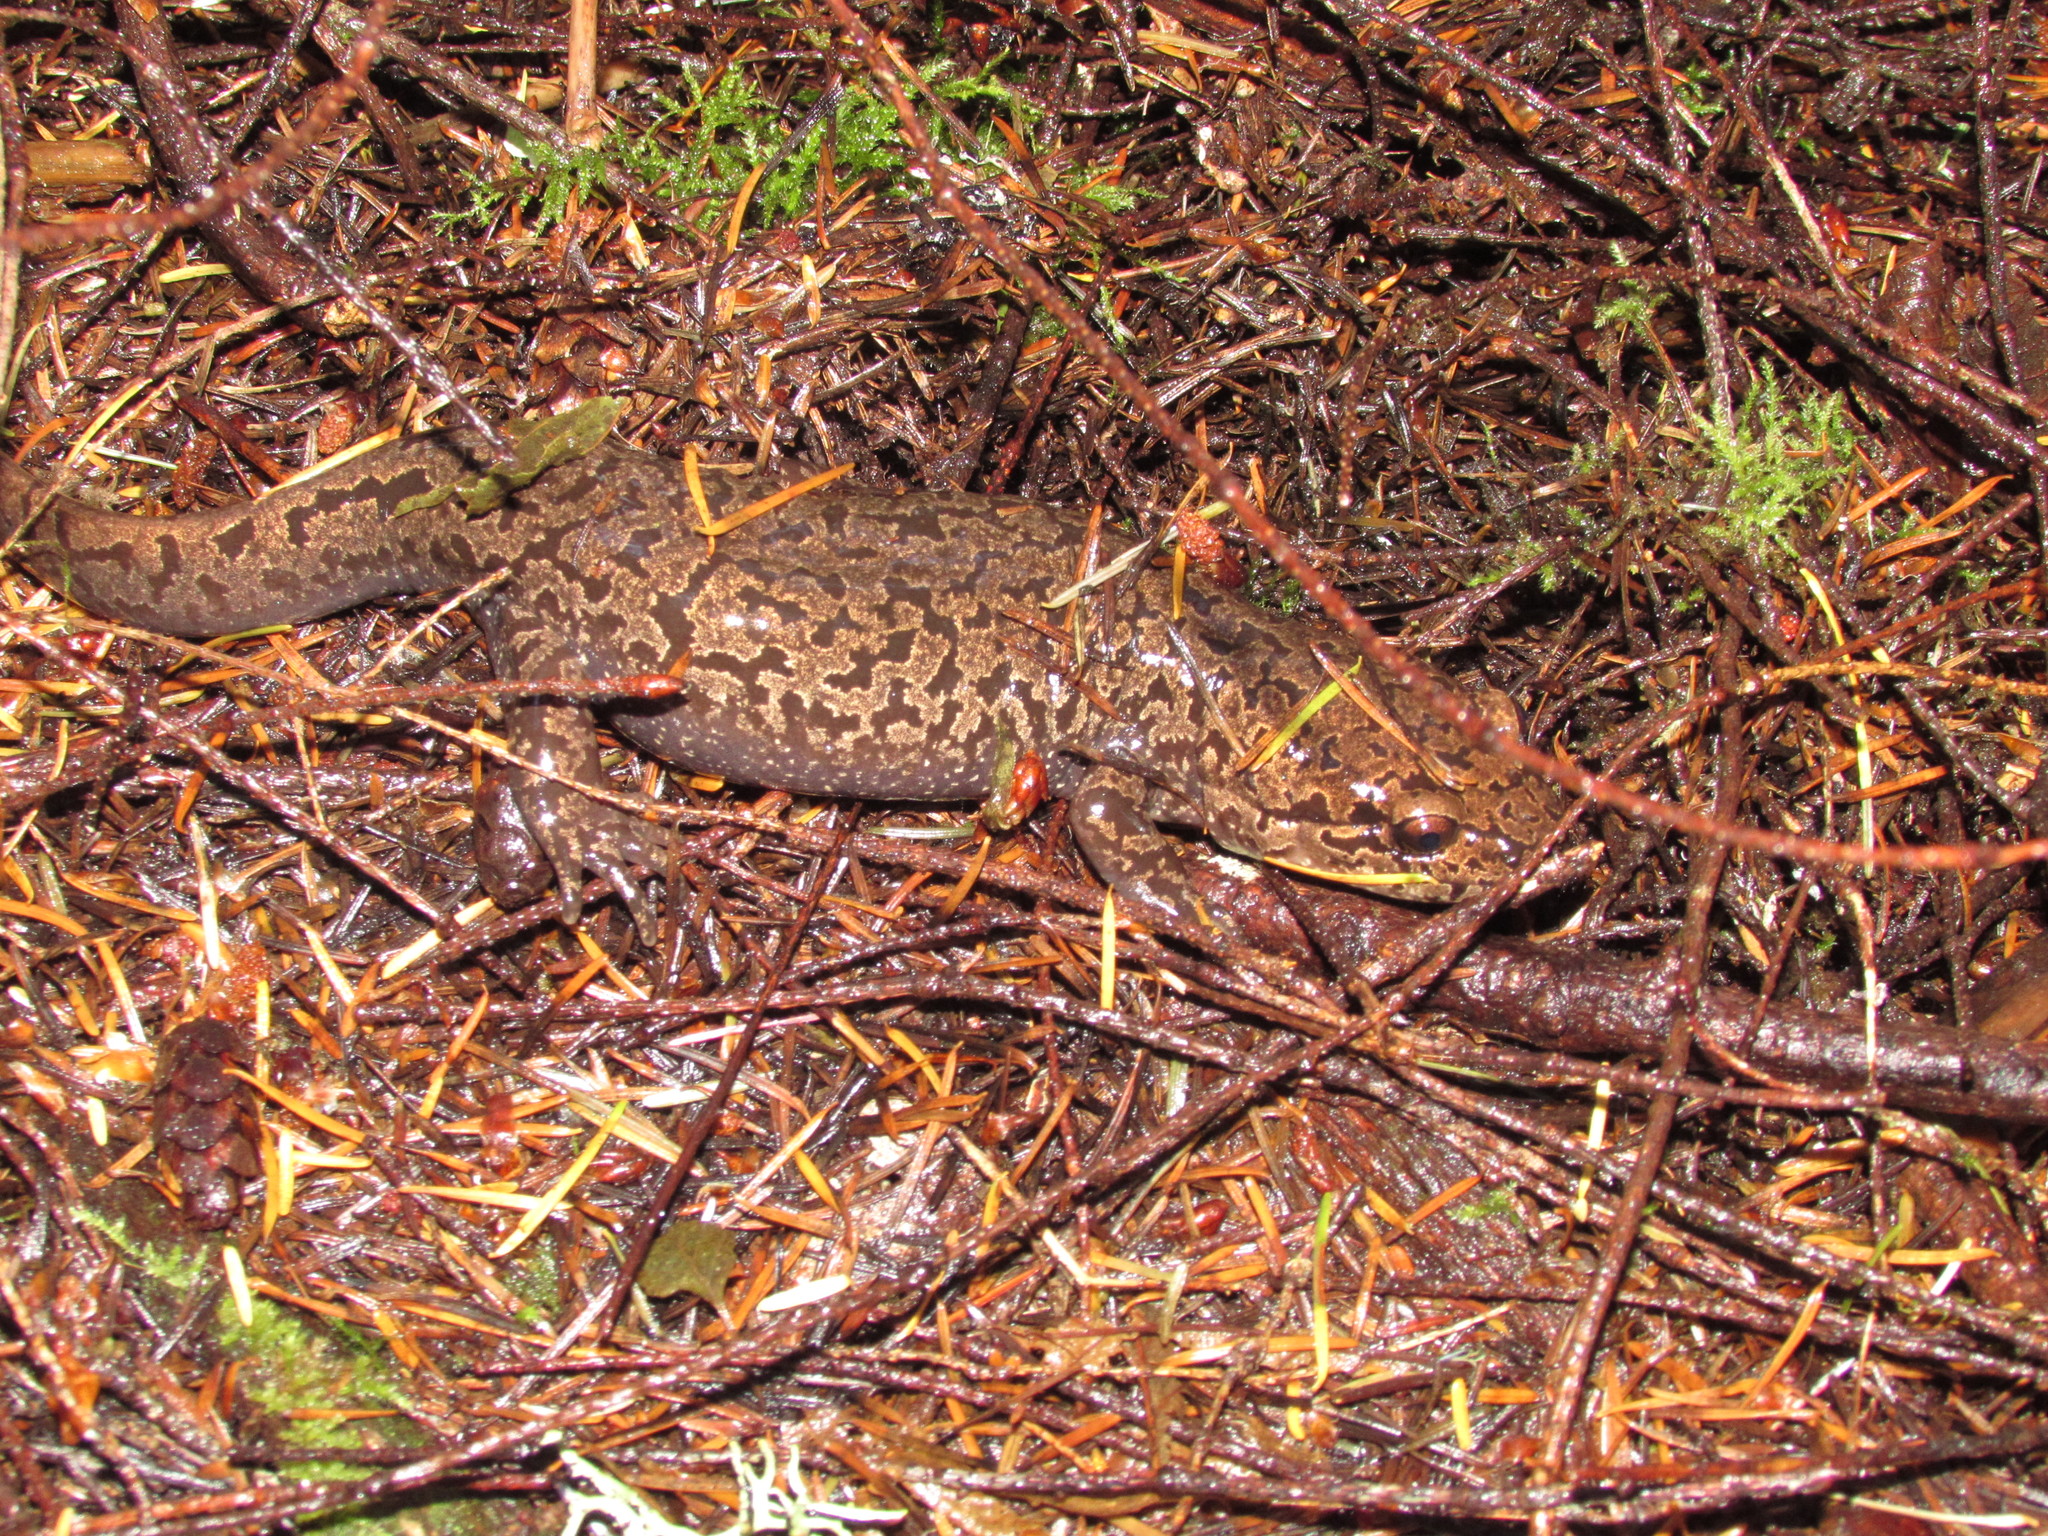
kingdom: Animalia
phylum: Chordata
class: Amphibia
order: Caudata
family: Ambystomatidae
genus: Dicamptodon
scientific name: Dicamptodon tenebrosus
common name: Coastal giant salamander
